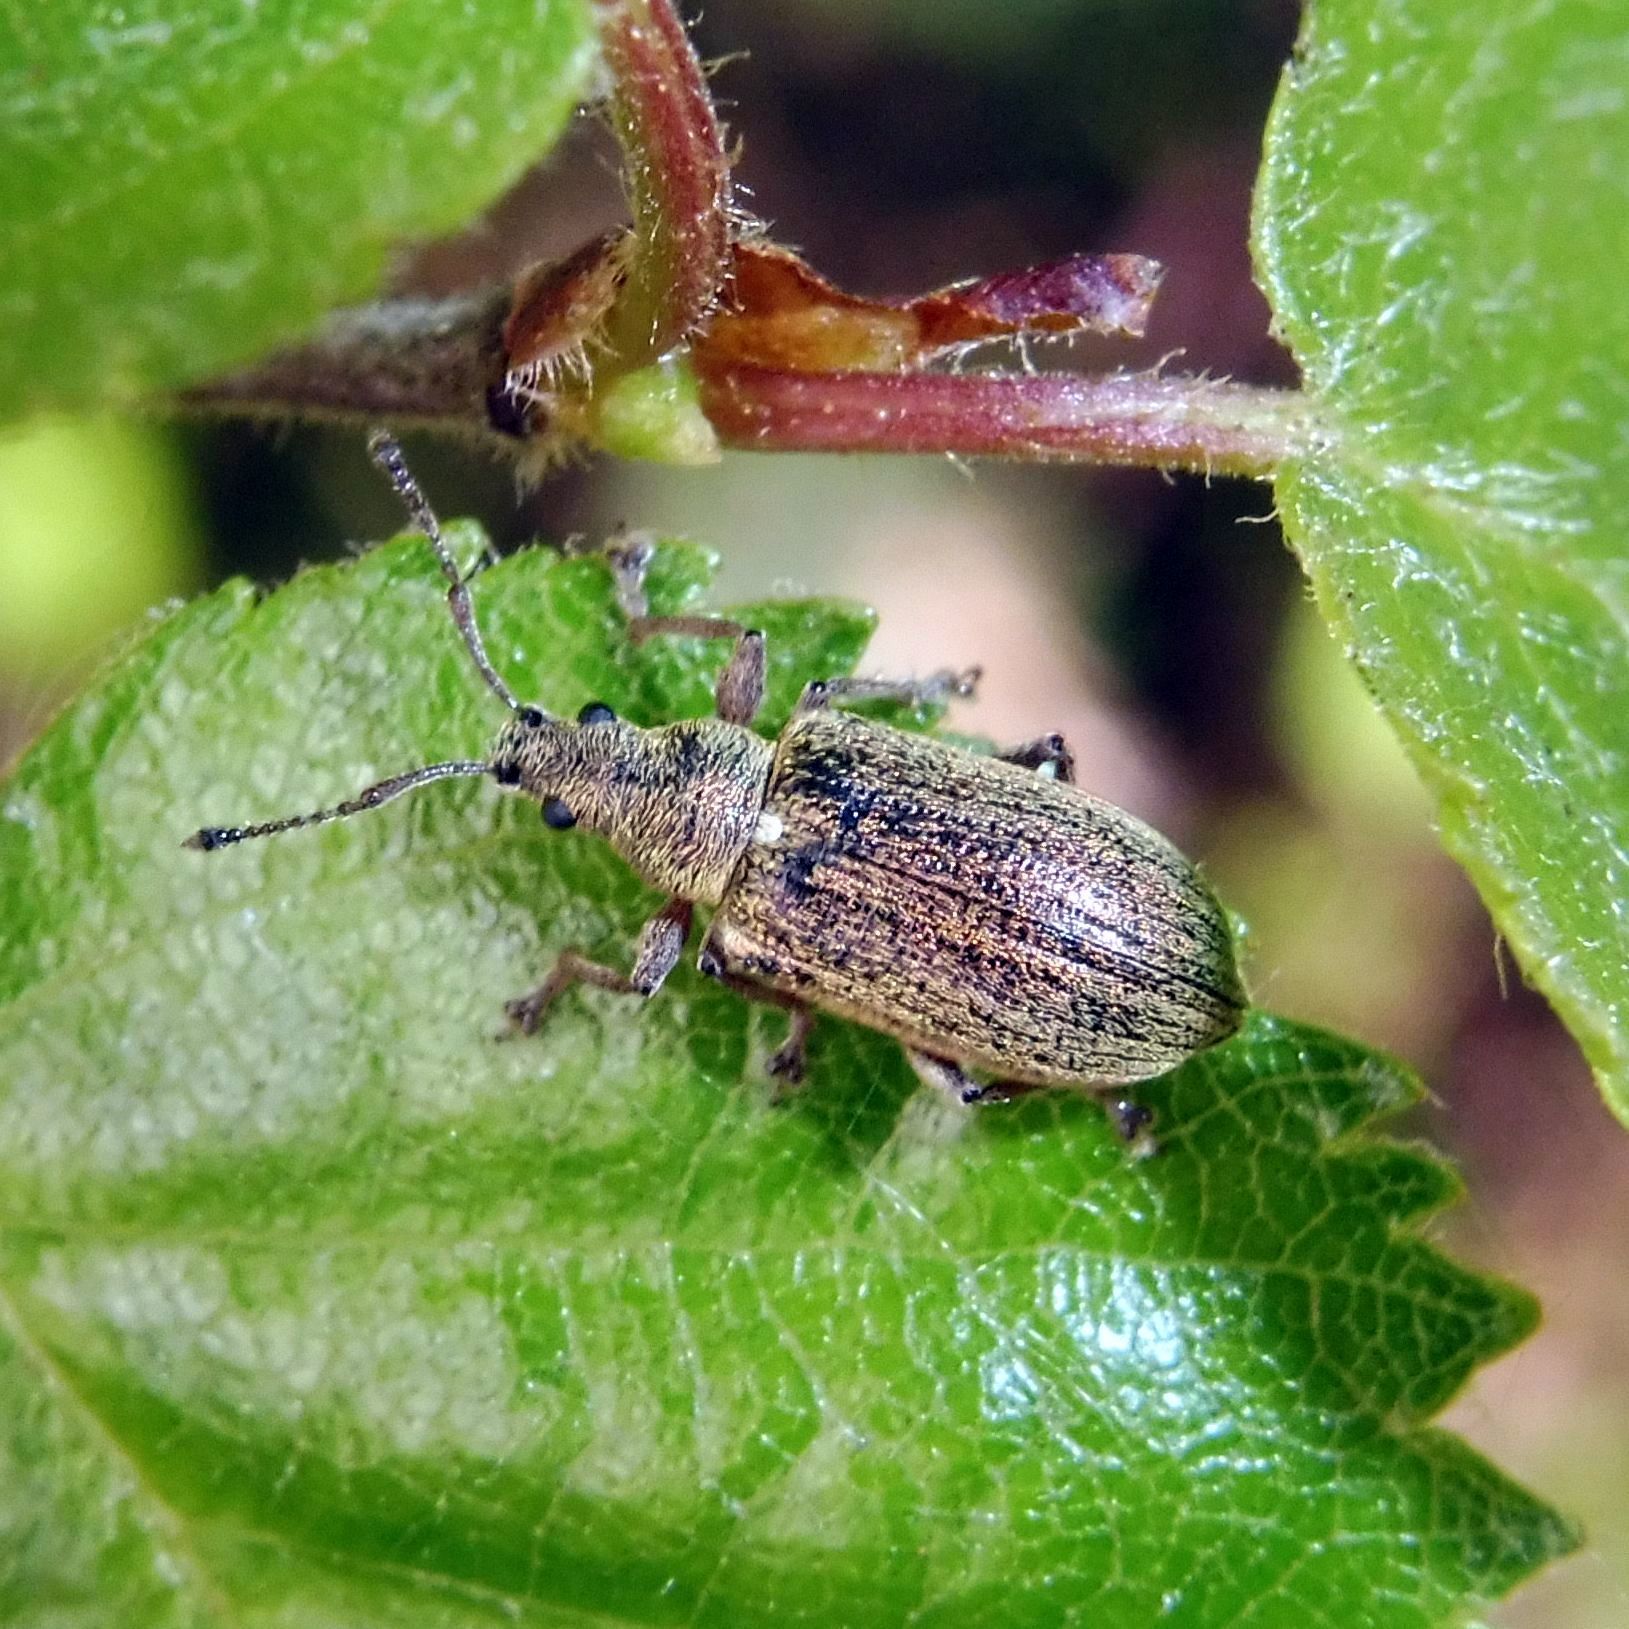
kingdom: Animalia
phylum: Arthropoda
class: Insecta
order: Coleoptera
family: Curculionidae
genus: Phyllobius
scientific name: Phyllobius pyri
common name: Common leaf weevil
